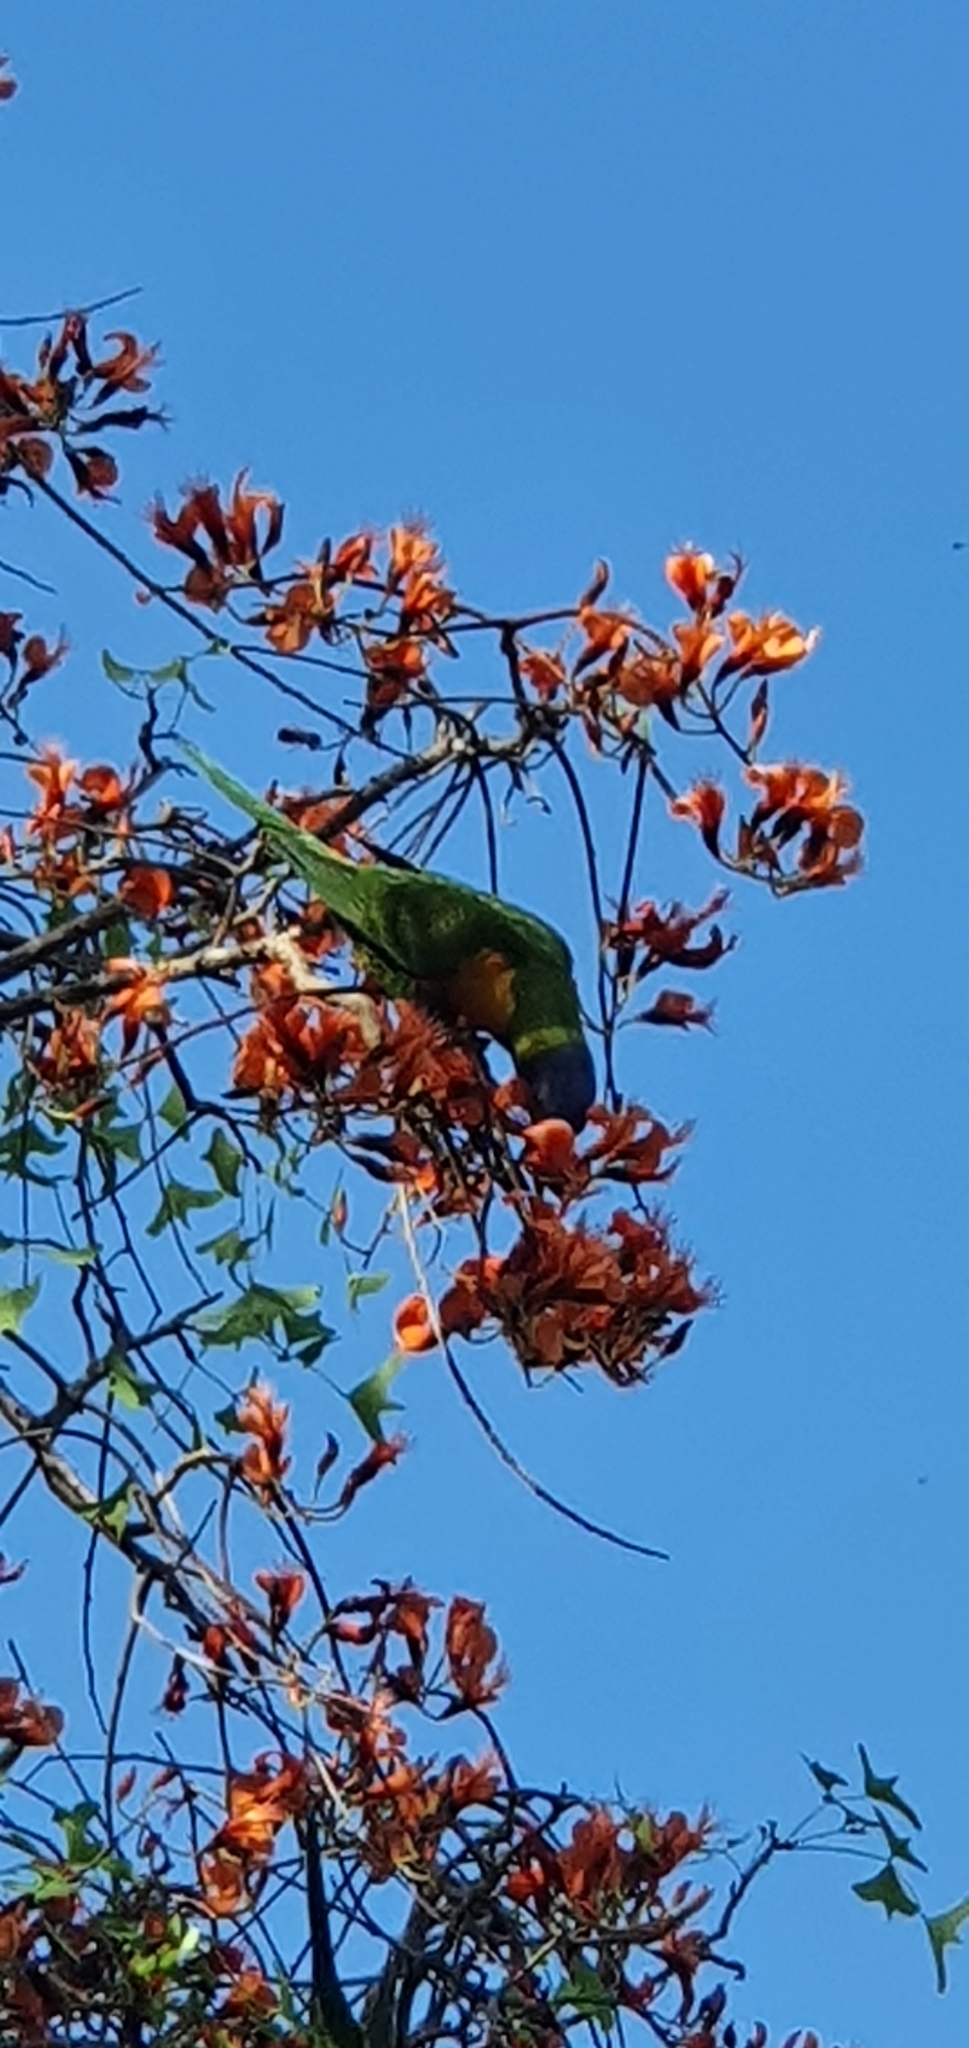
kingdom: Animalia
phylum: Chordata
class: Aves
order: Psittaciformes
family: Psittacidae
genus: Trichoglossus
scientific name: Trichoglossus haematodus
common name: Coconut lorikeet
